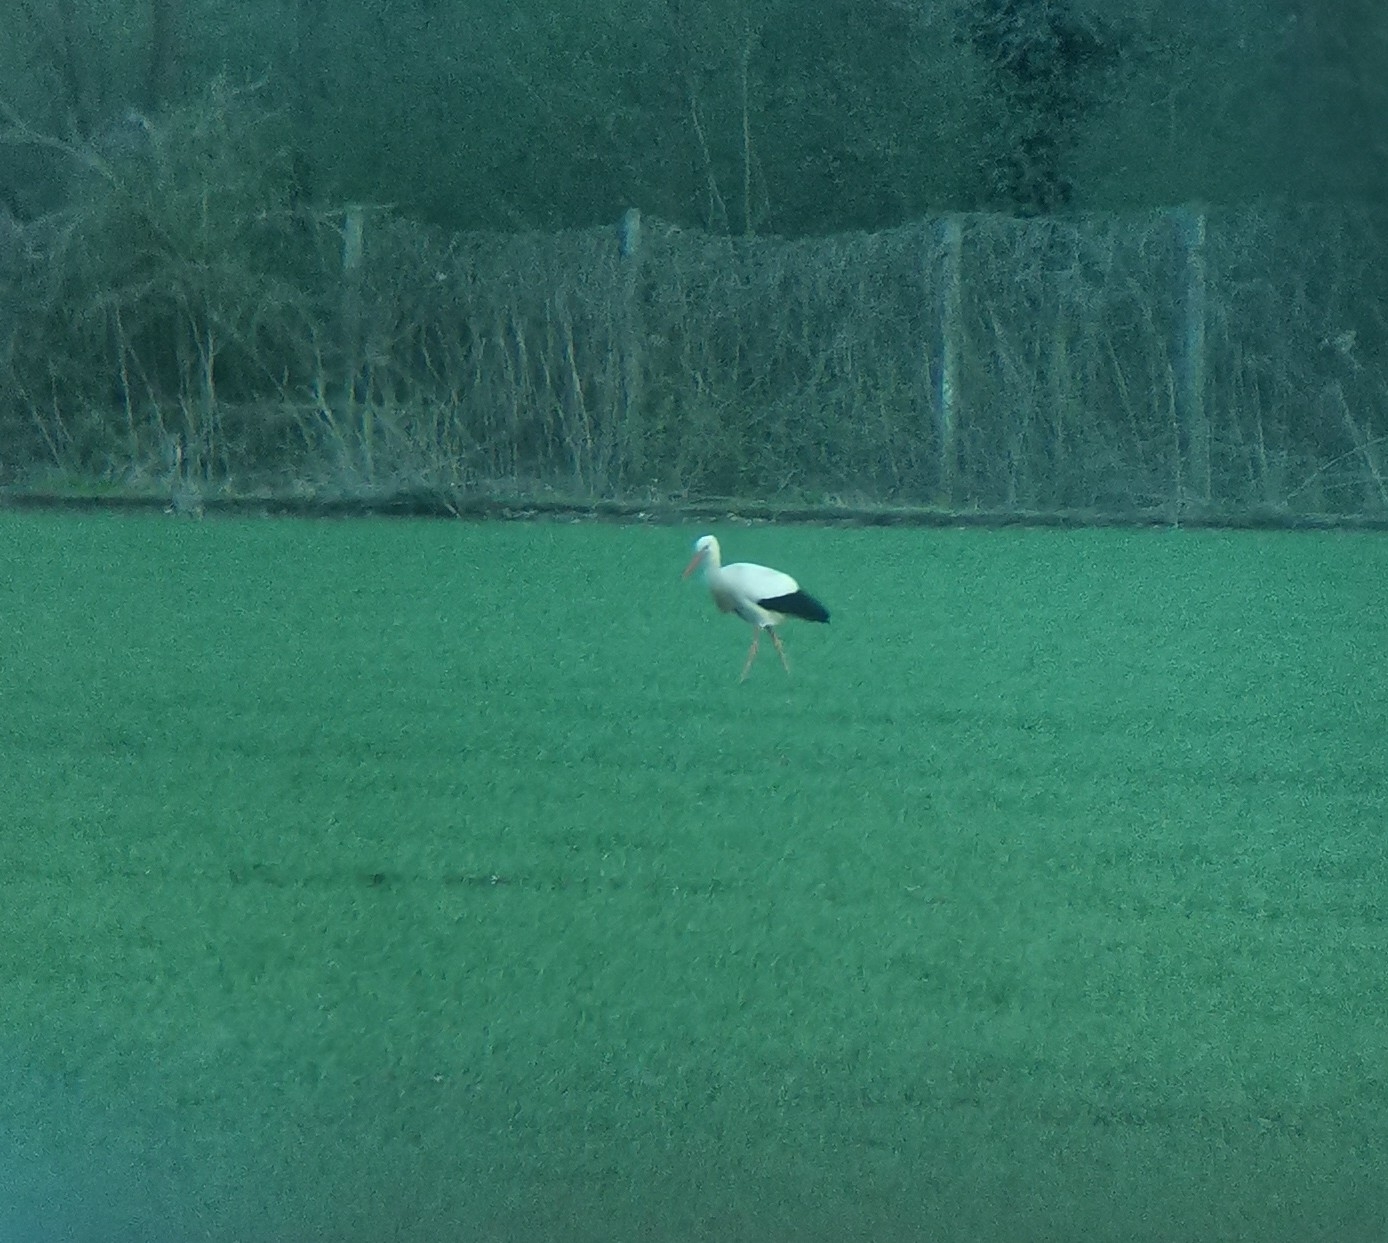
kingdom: Animalia
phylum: Chordata
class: Aves
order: Ciconiiformes
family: Ciconiidae
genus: Ciconia
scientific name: Ciconia ciconia
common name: White stork
